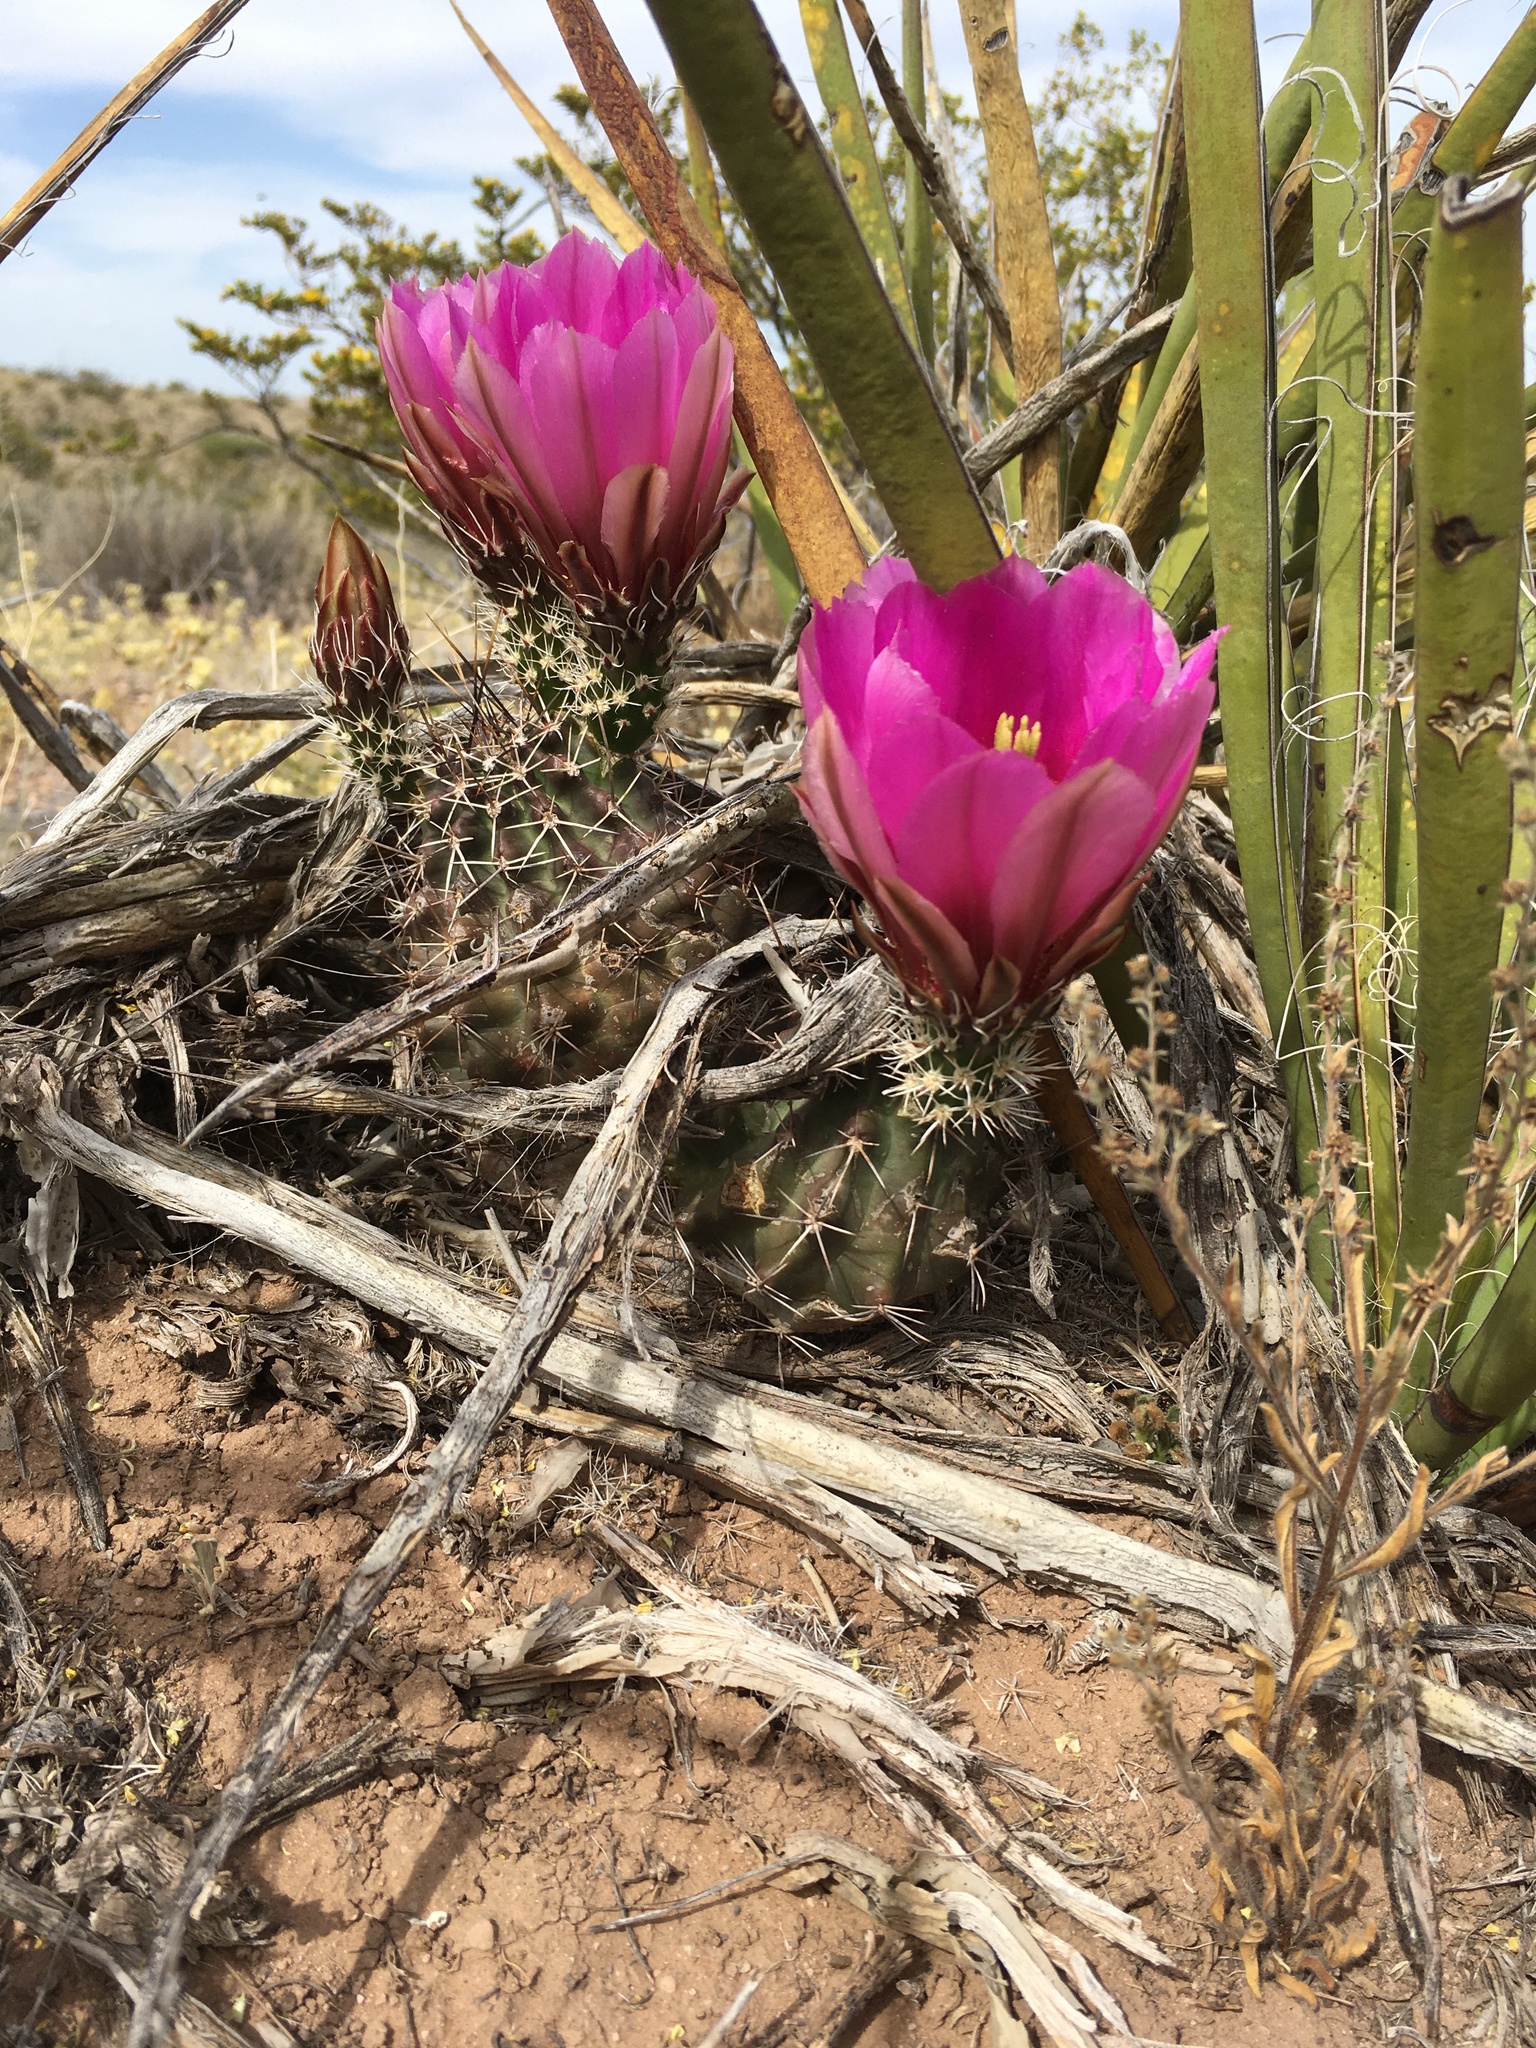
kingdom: Plantae
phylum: Tracheophyta
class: Magnoliopsida
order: Caryophyllales
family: Cactaceae
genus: Echinocereus
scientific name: Echinocereus fendleri
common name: Fendler's hedgehog cactus
